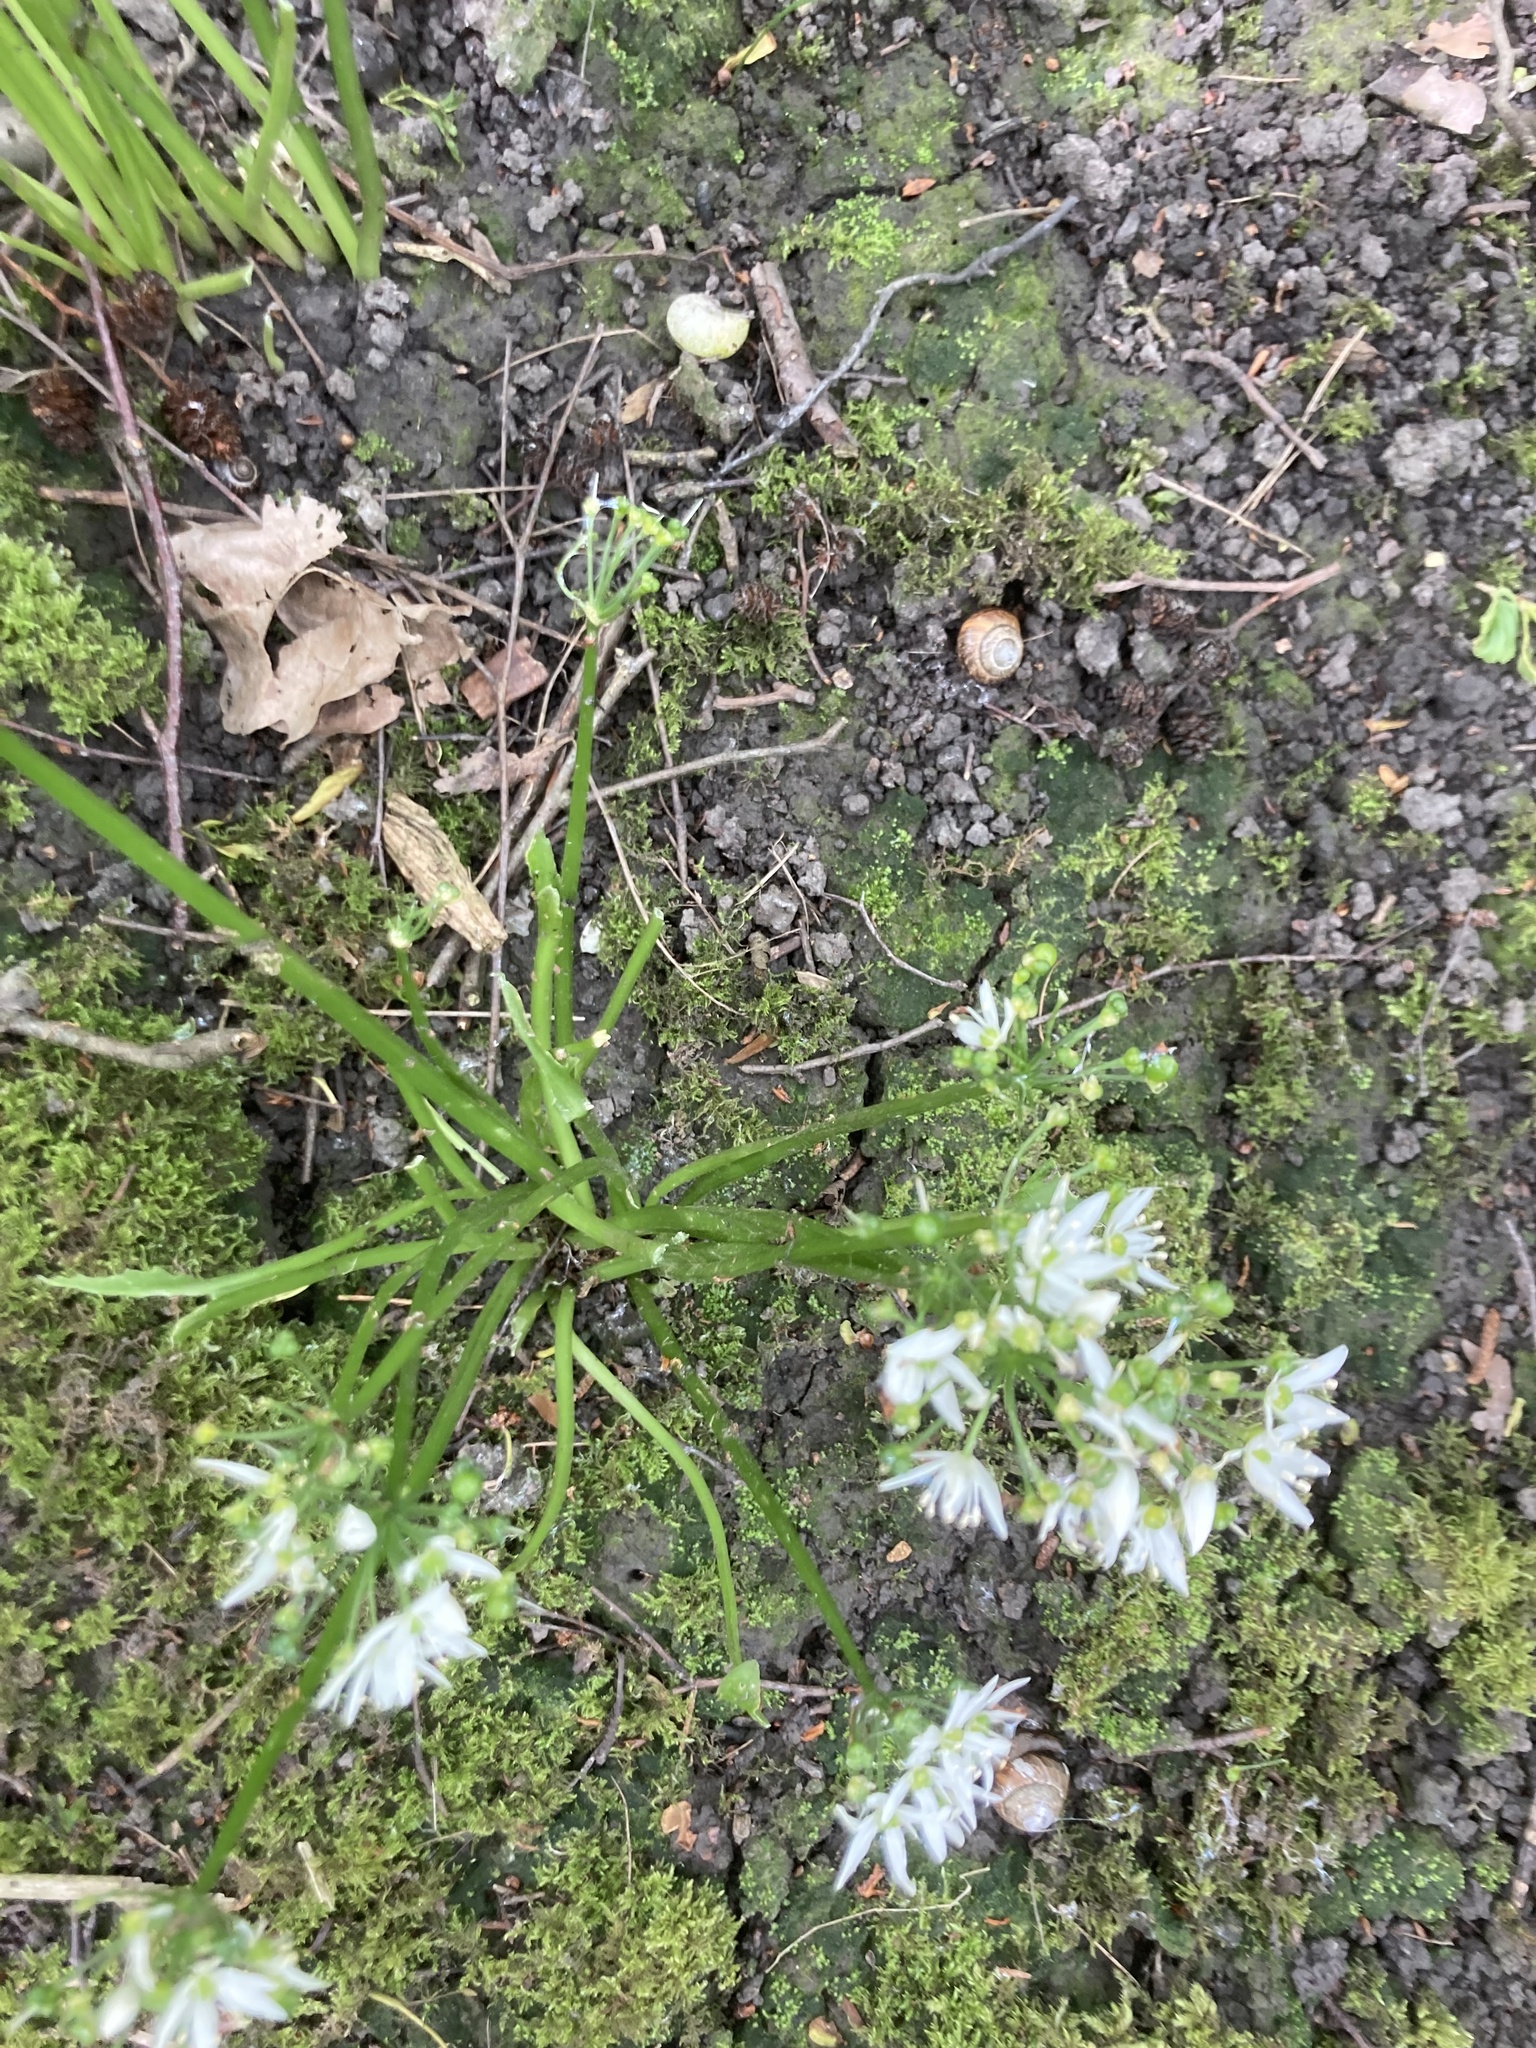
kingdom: Plantae
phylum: Tracheophyta
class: Liliopsida
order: Asparagales
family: Amaryllidaceae
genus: Allium
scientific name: Allium ursinum
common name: Ramsons
